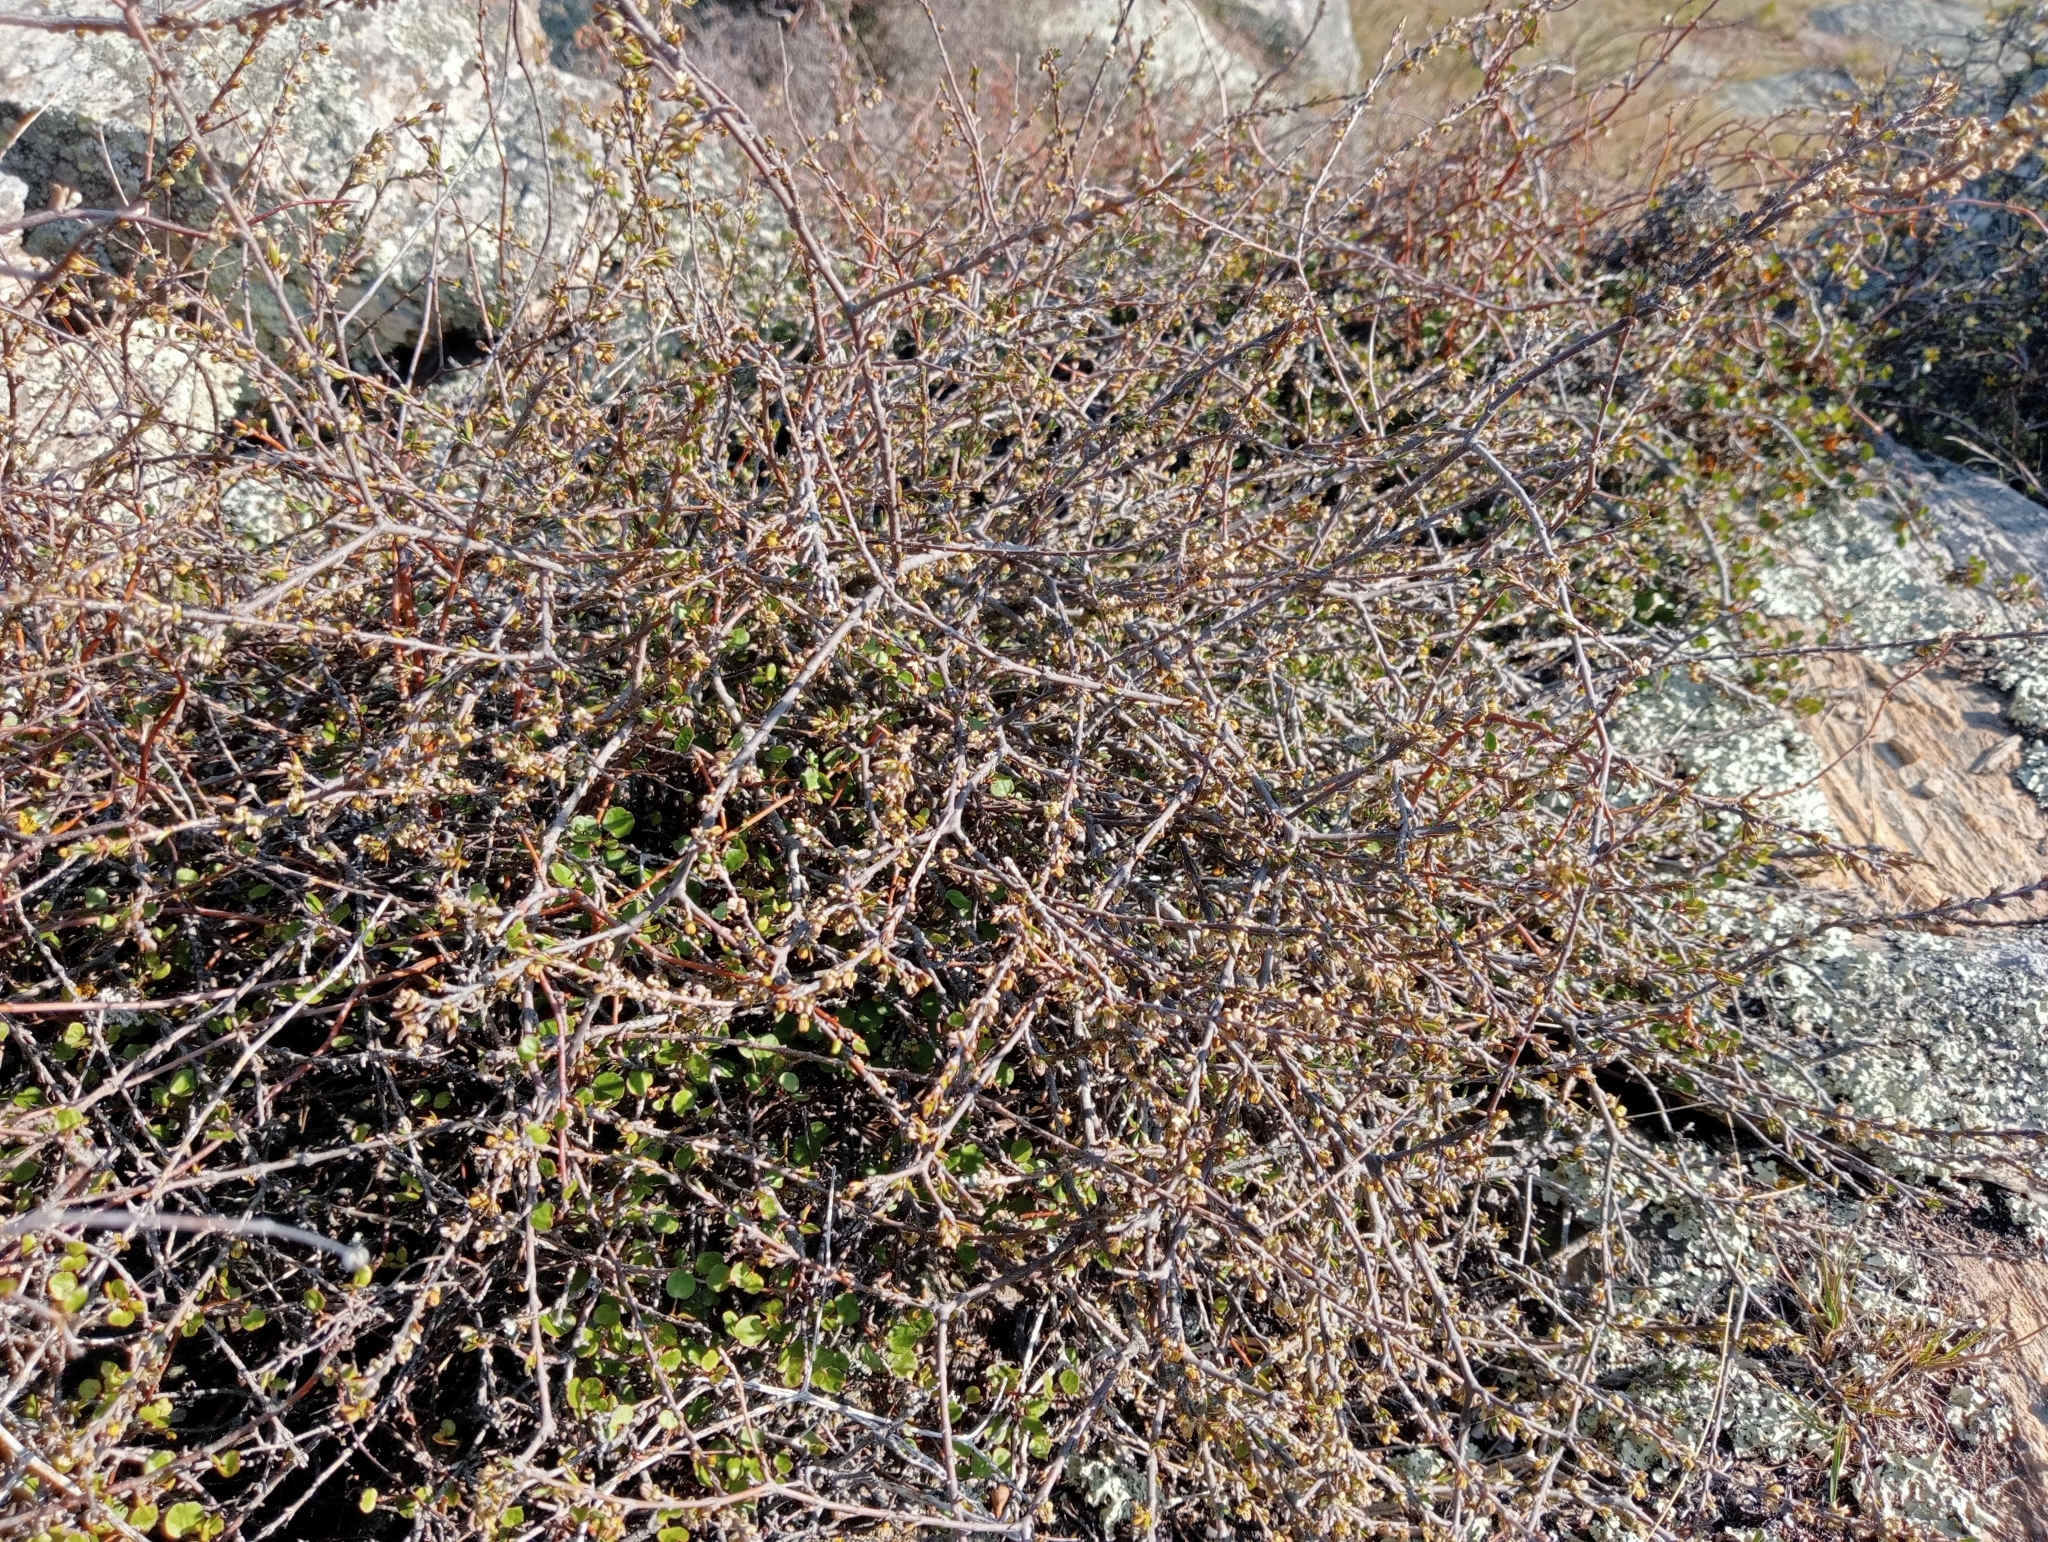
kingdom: Plantae
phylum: Tracheophyta
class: Magnoliopsida
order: Gentianales
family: Rubiaceae
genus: Coprosma
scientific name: Coprosma acerosa
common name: Sand coprosma
